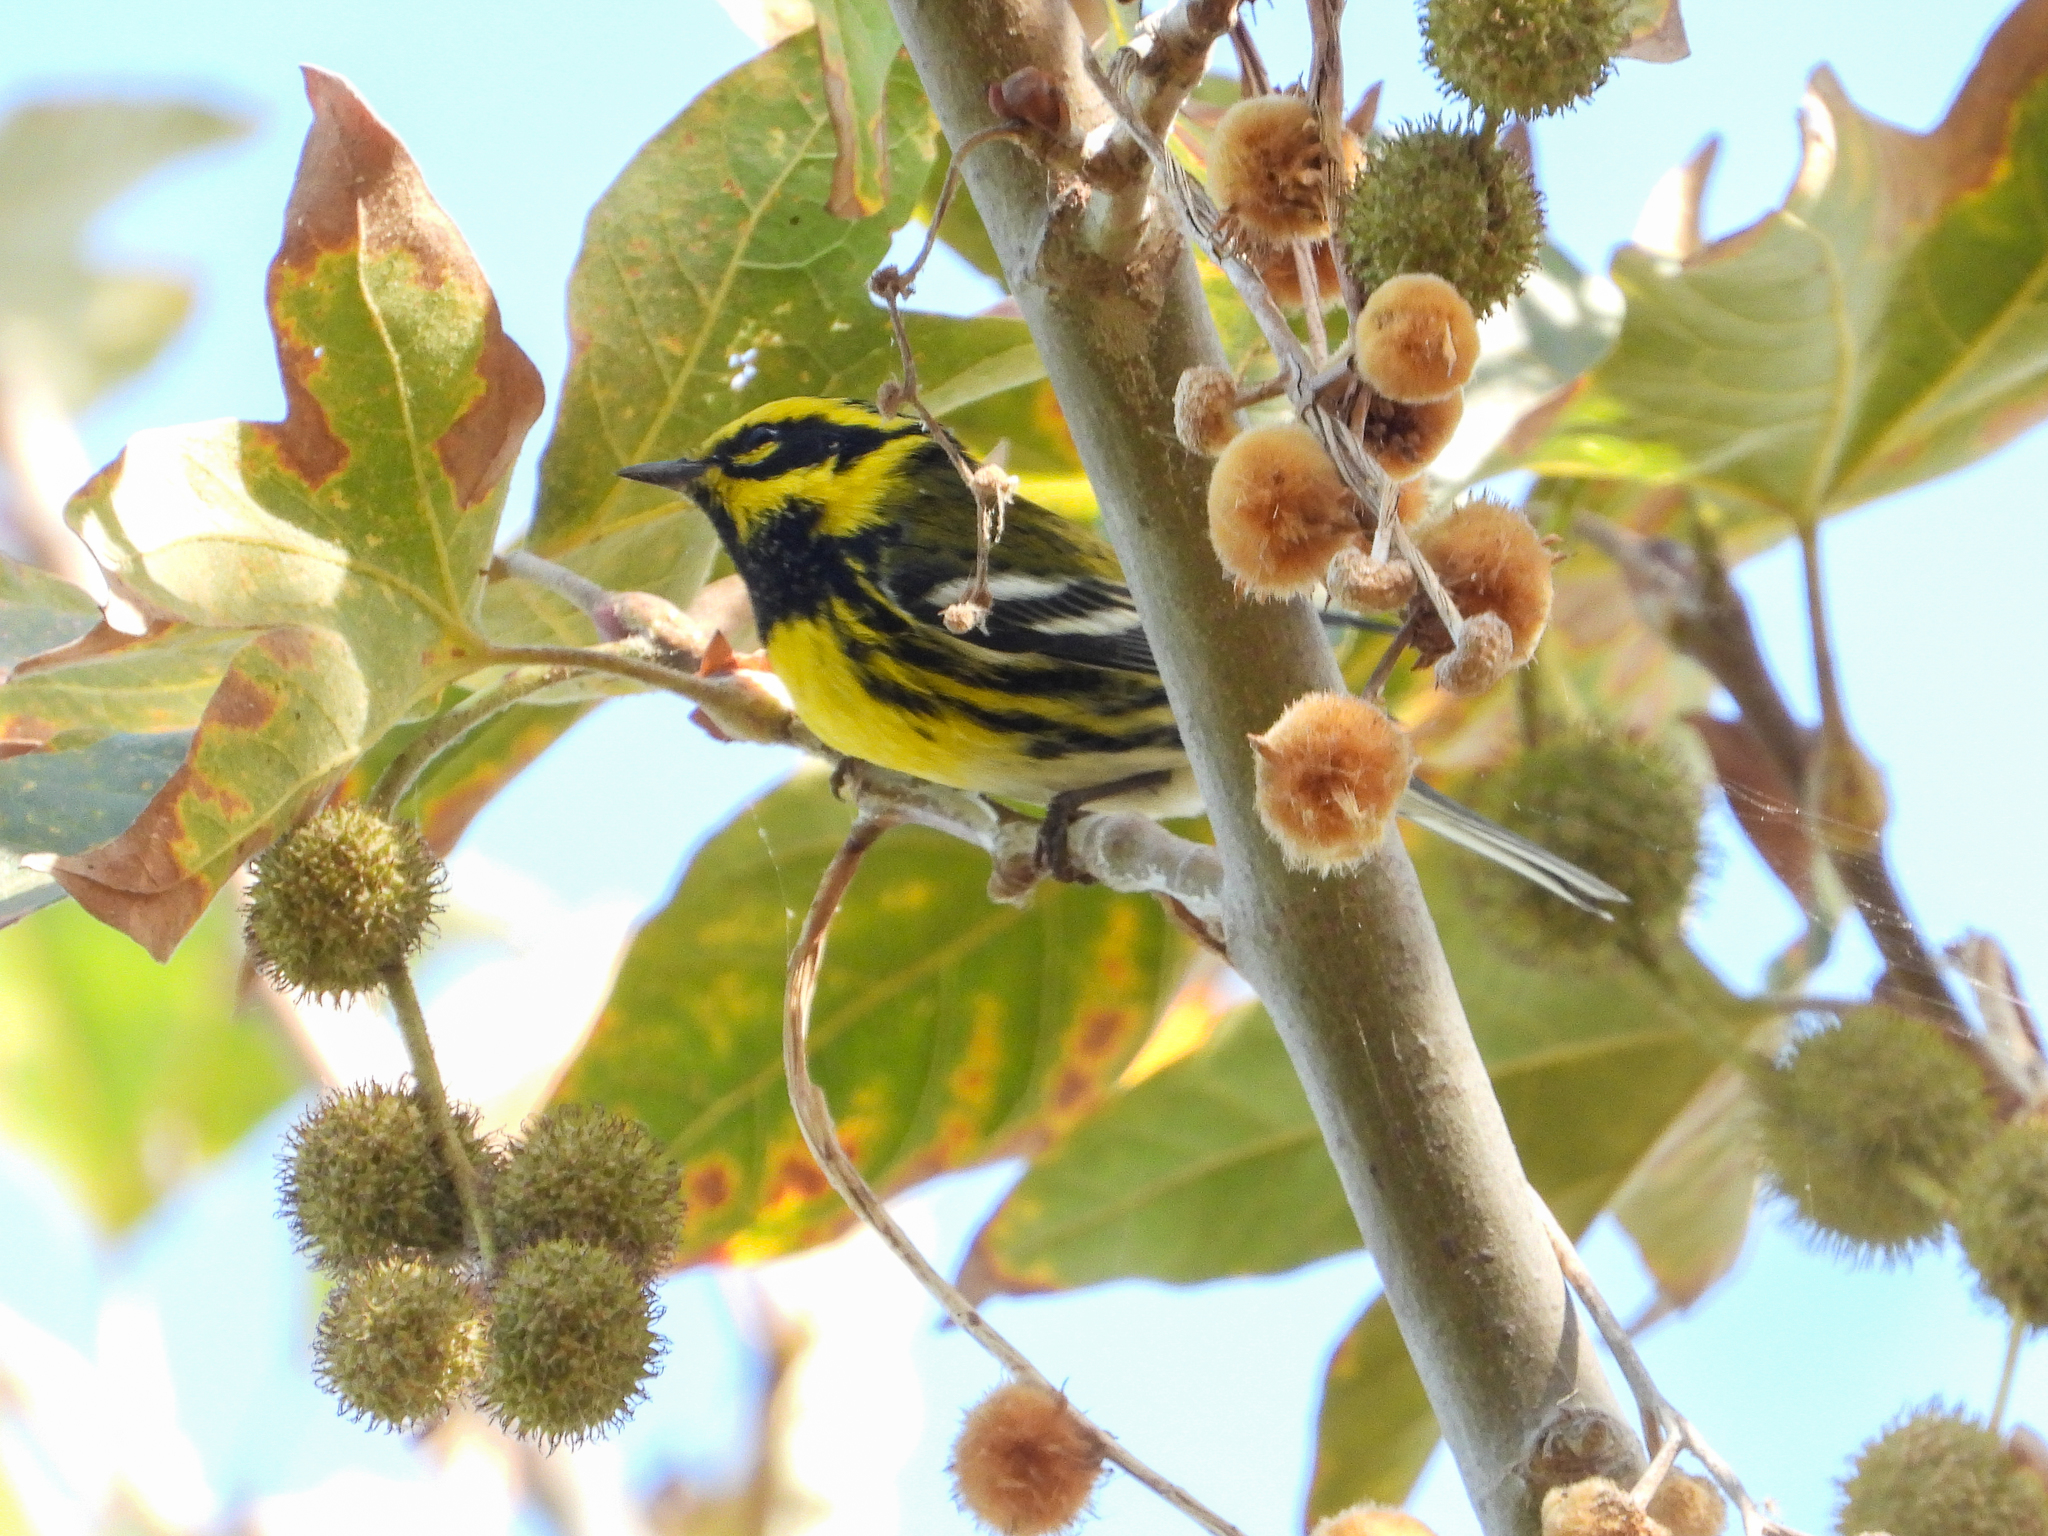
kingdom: Animalia
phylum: Chordata
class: Aves
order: Passeriformes
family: Parulidae
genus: Setophaga
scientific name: Setophaga townsendi
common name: Townsend's warbler
